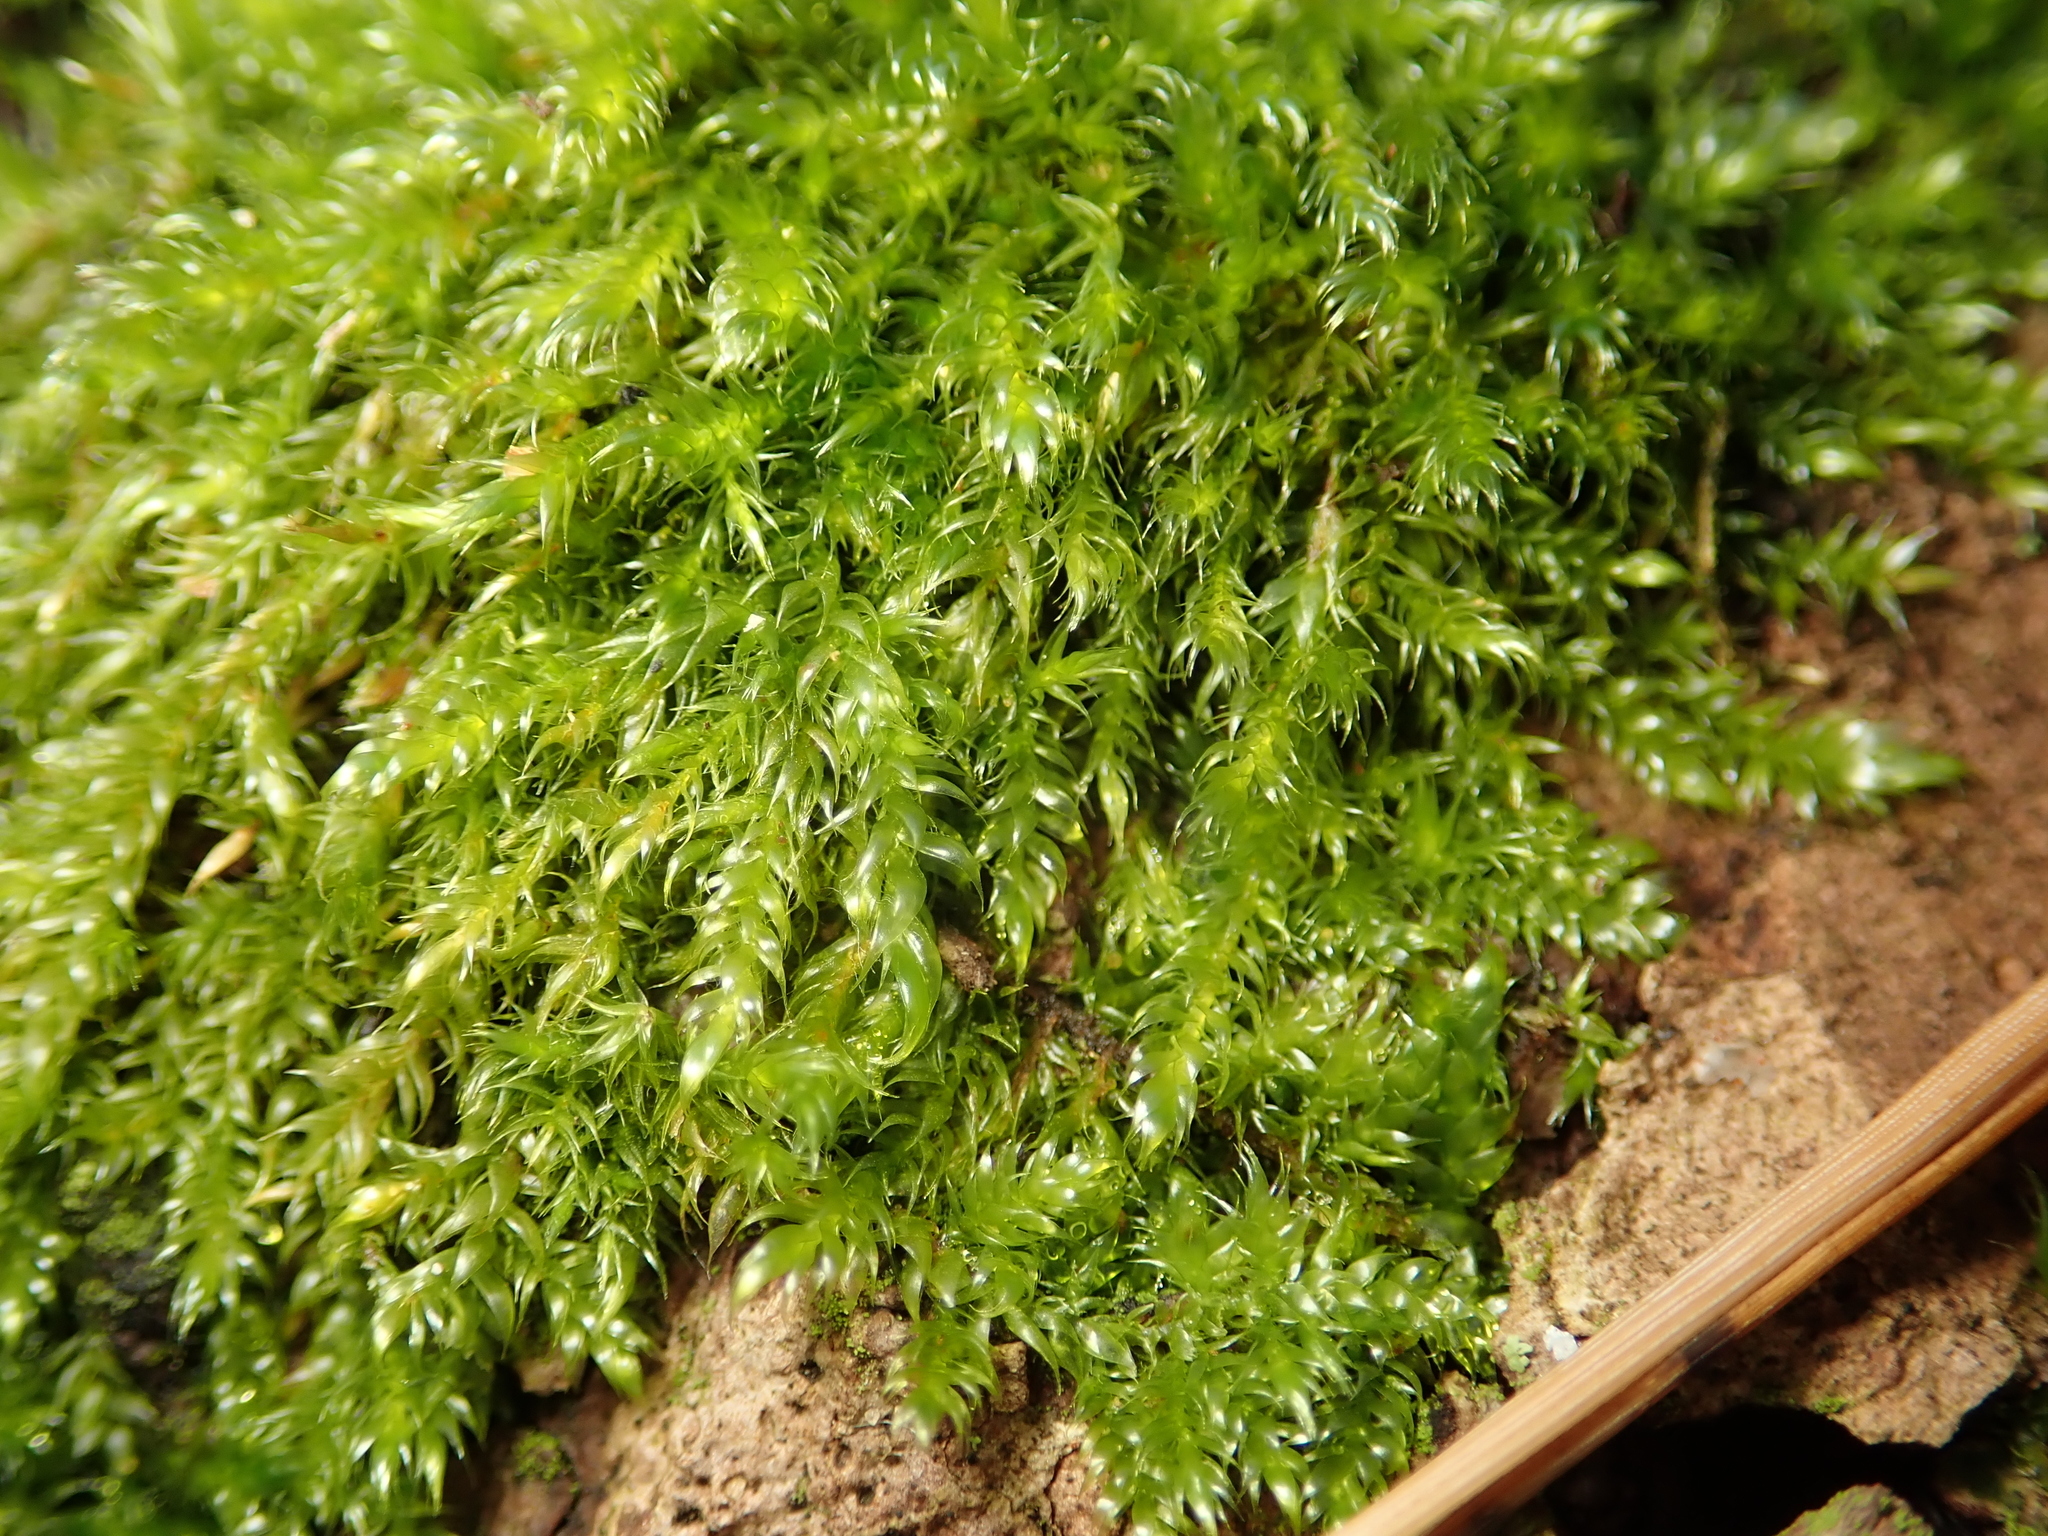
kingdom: Plantae
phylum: Bryophyta
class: Bryopsida
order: Hypnales
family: Hypnaceae
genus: Hypnum
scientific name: Hypnum cupressiforme
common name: Cypress-leaved plait-moss
